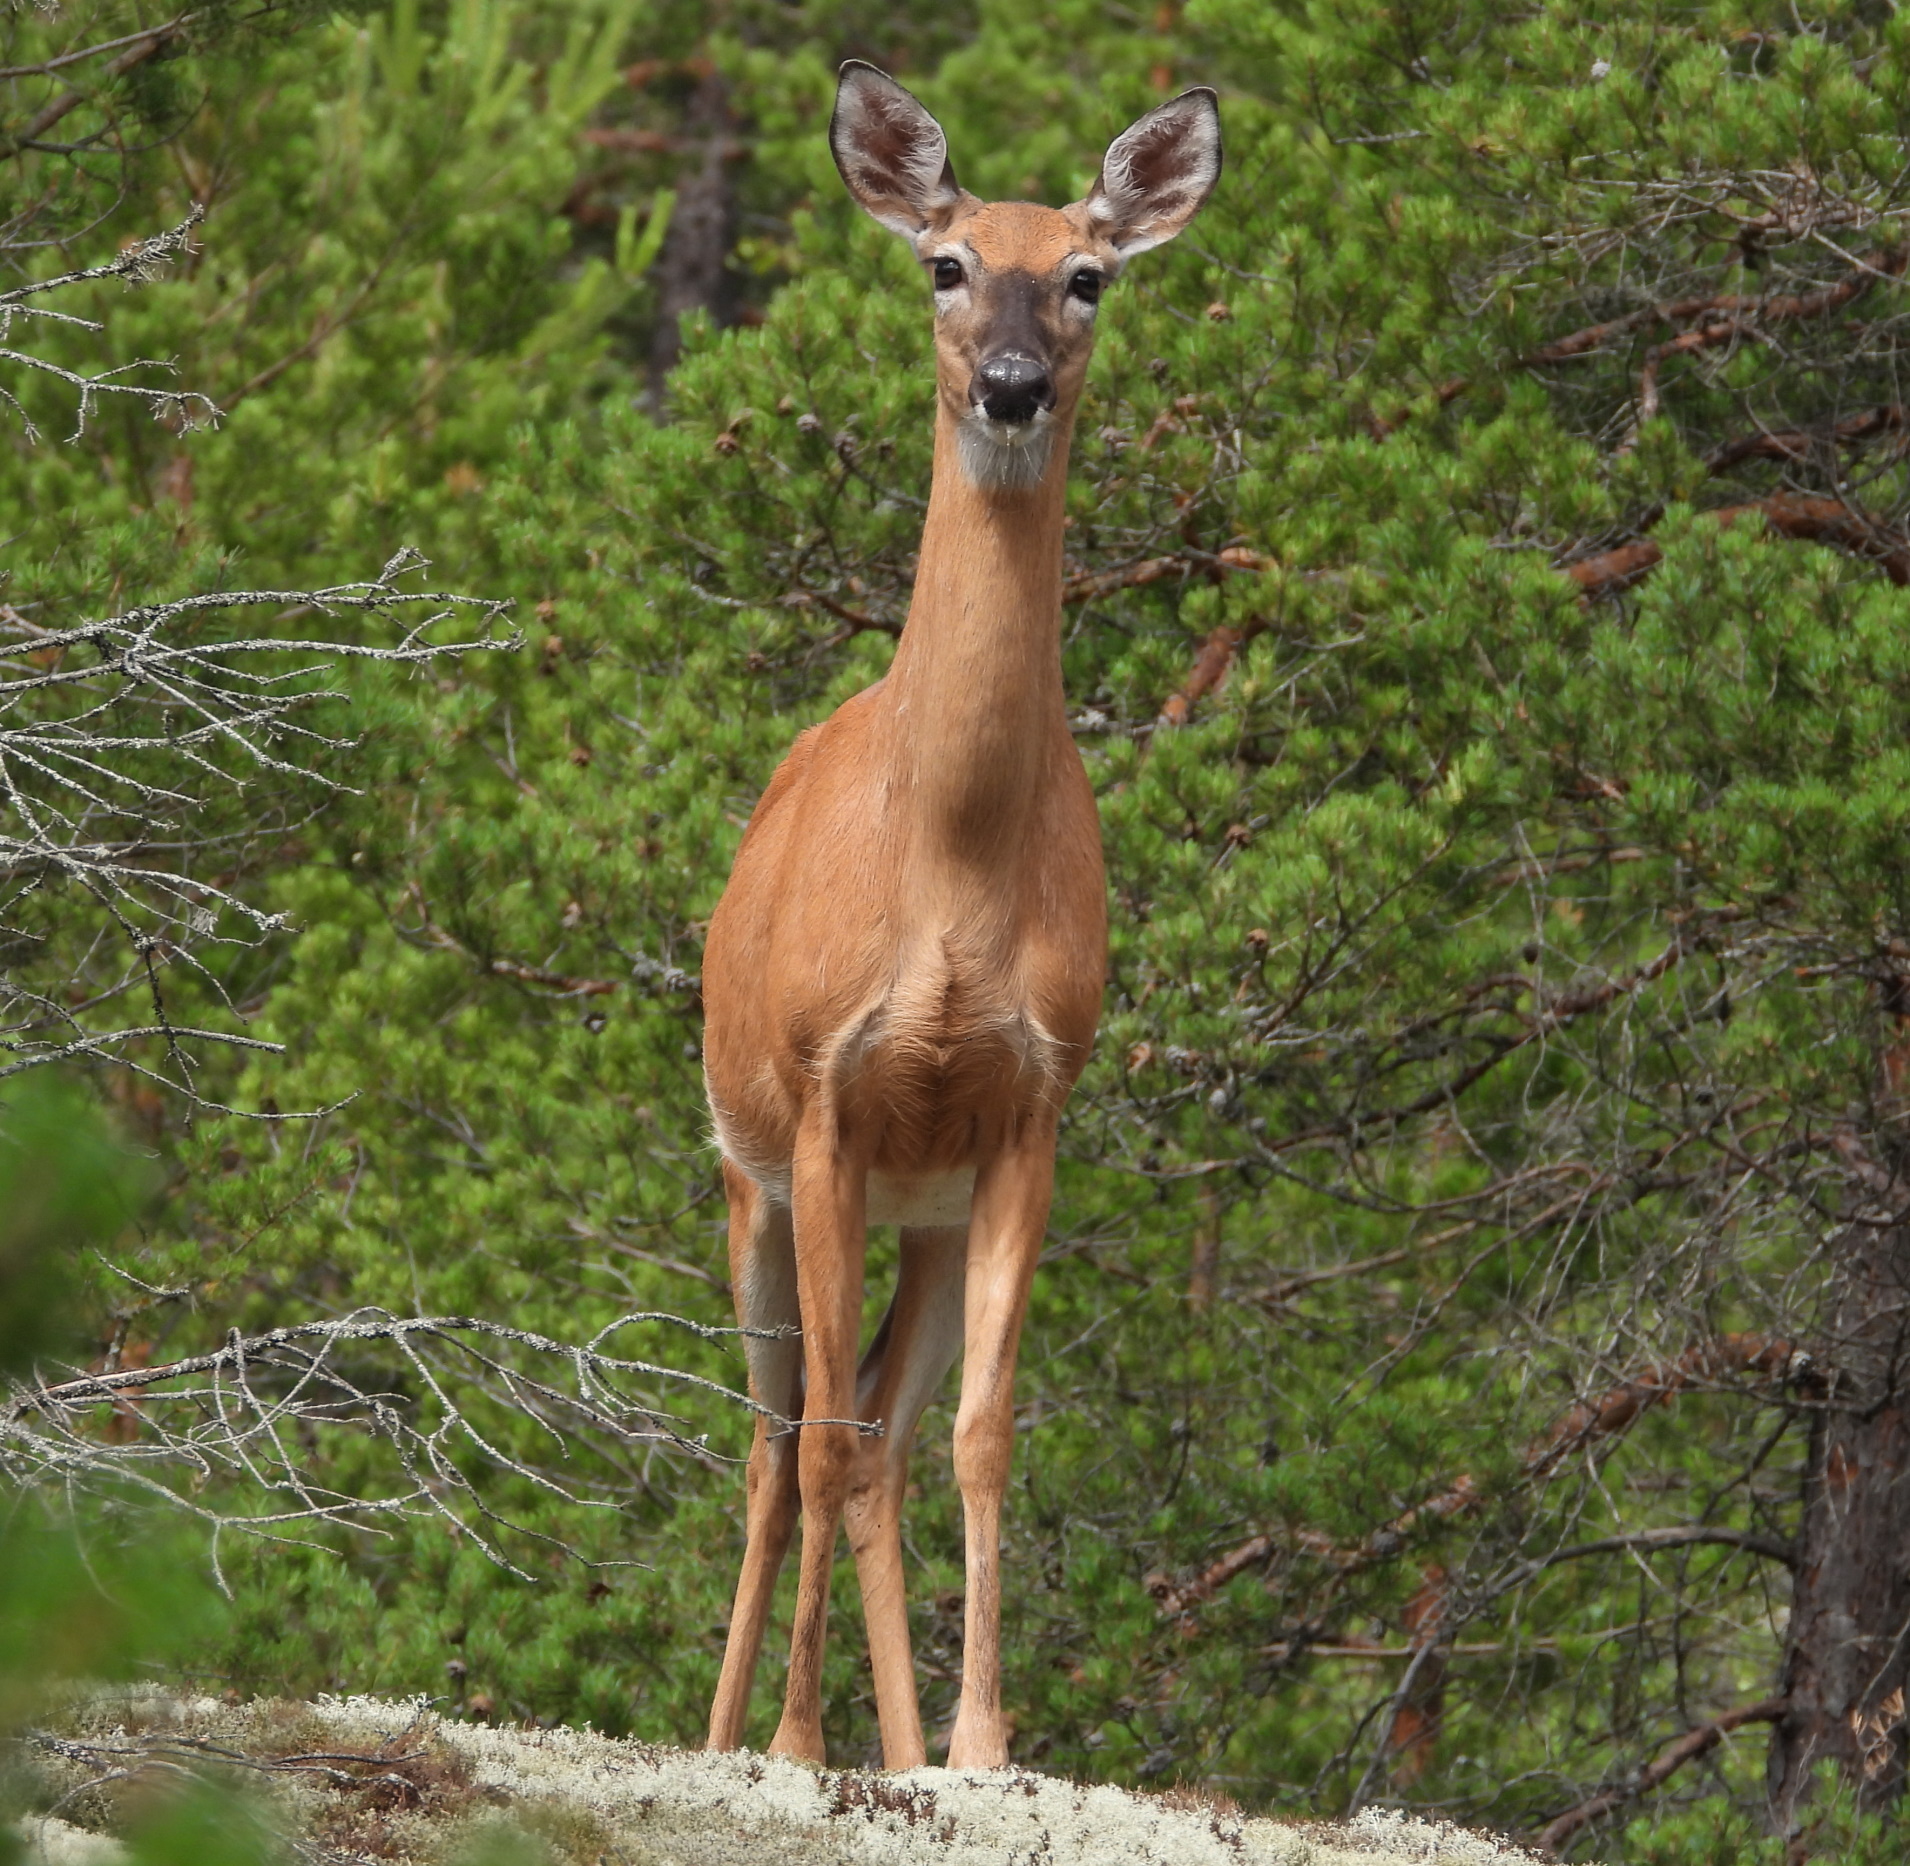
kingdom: Animalia
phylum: Chordata
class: Mammalia
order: Artiodactyla
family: Cervidae
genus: Odocoileus
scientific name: Odocoileus virginianus
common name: White-tailed deer
